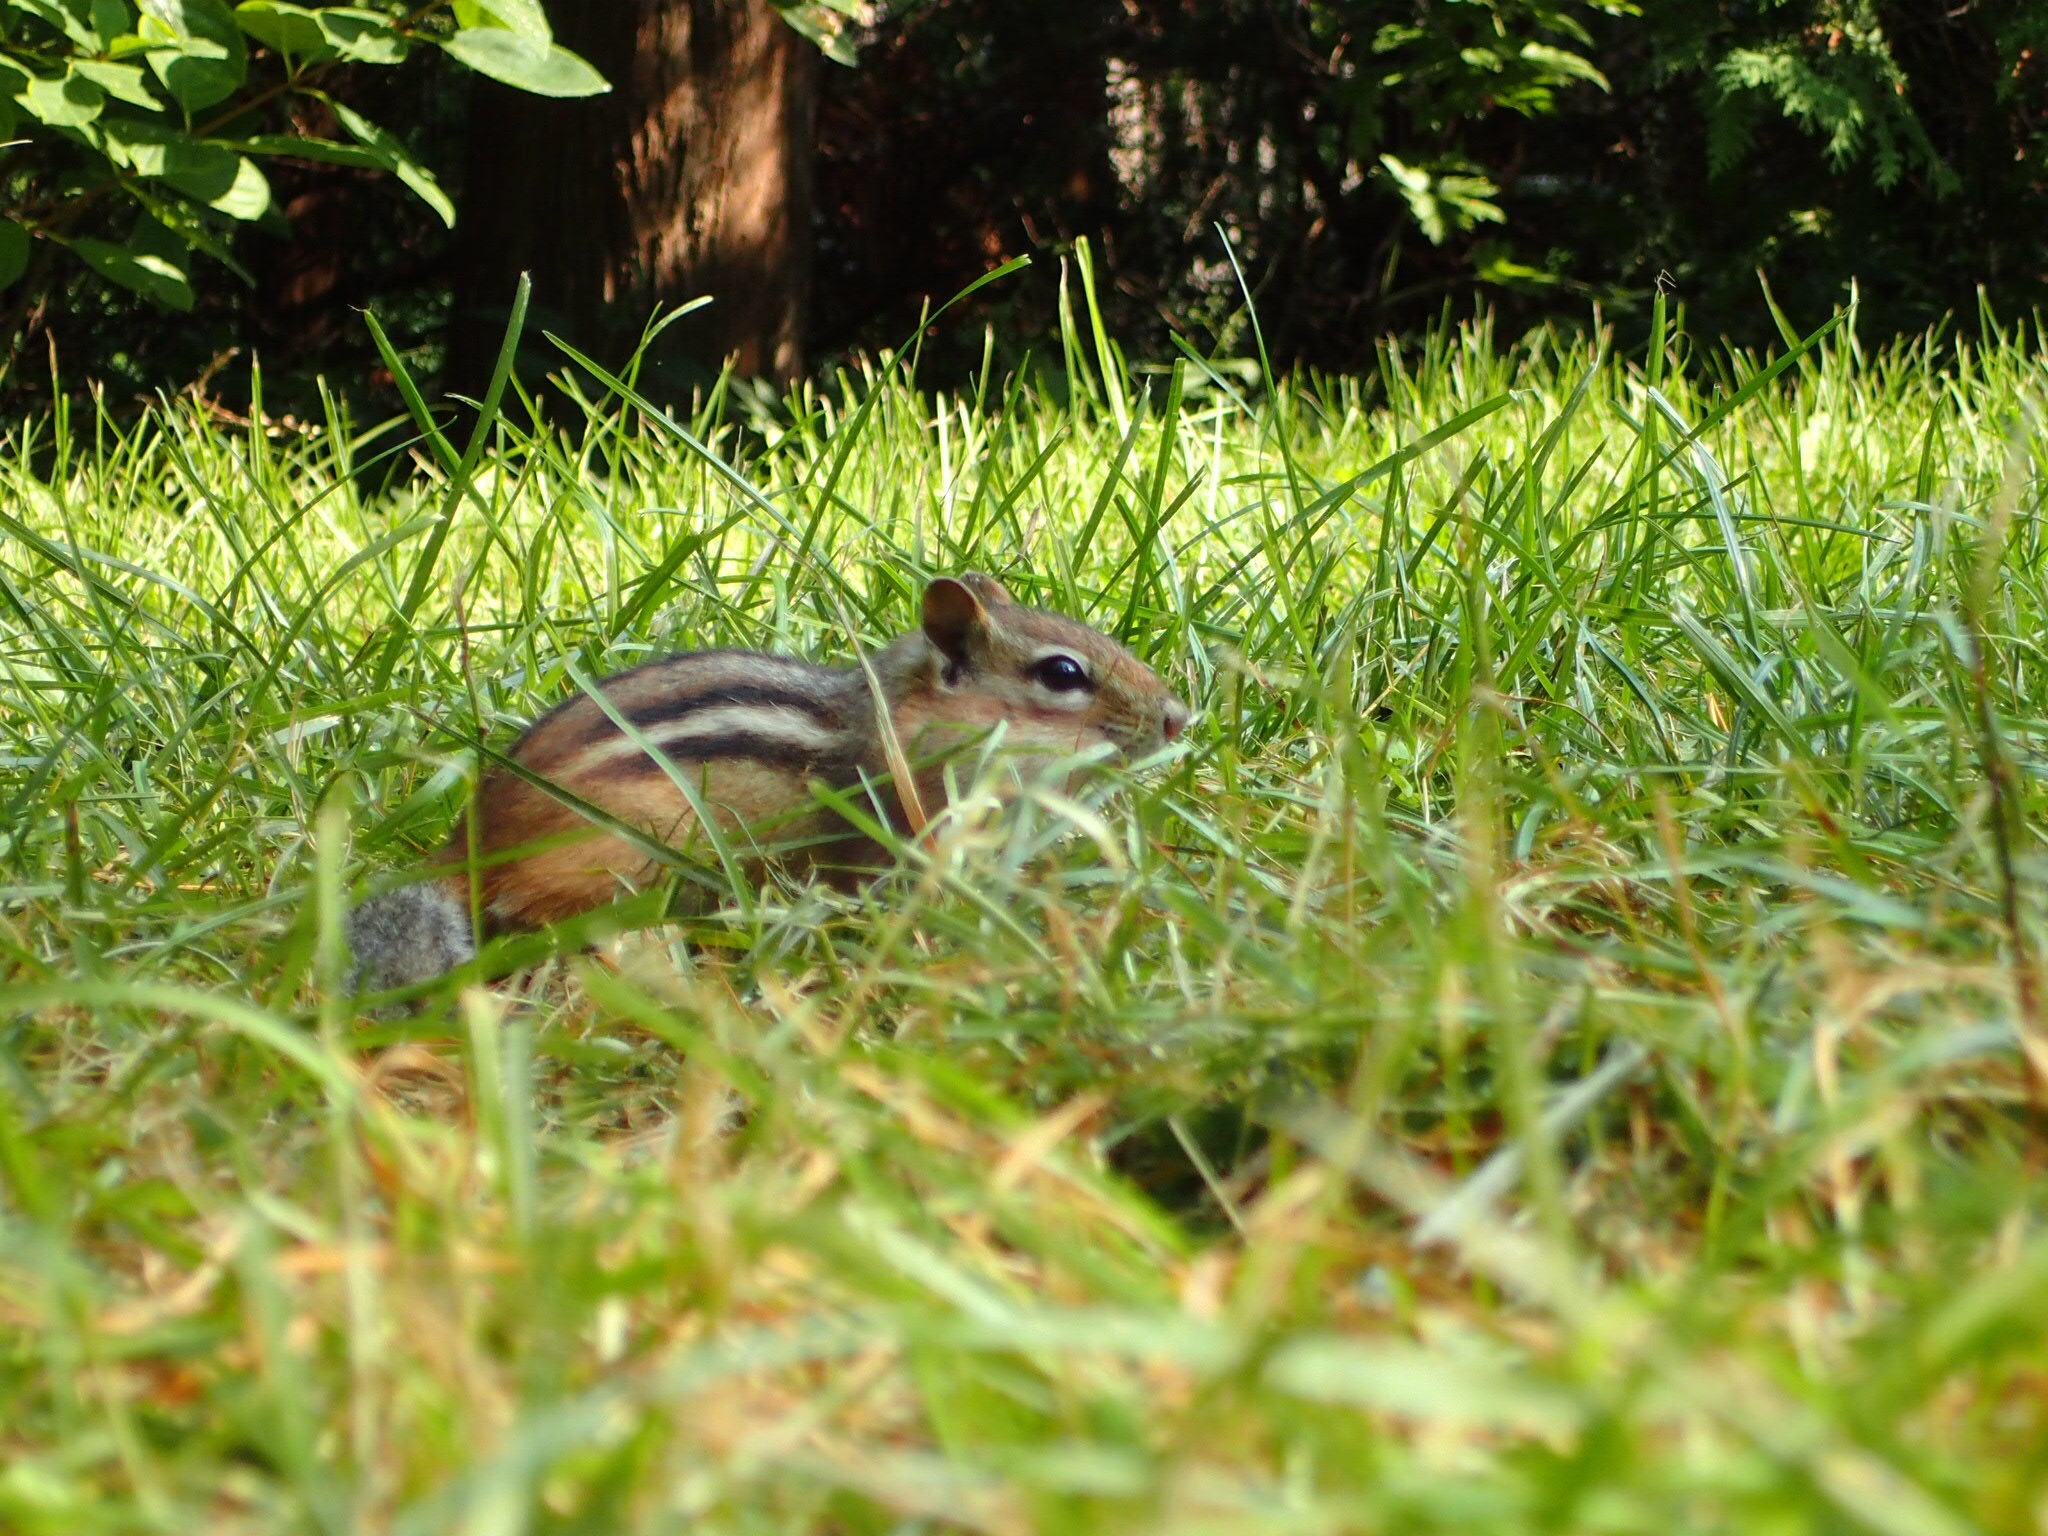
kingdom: Animalia
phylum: Chordata
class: Mammalia
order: Rodentia
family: Sciuridae
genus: Tamias
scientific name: Tamias striatus
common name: Eastern chipmunk
